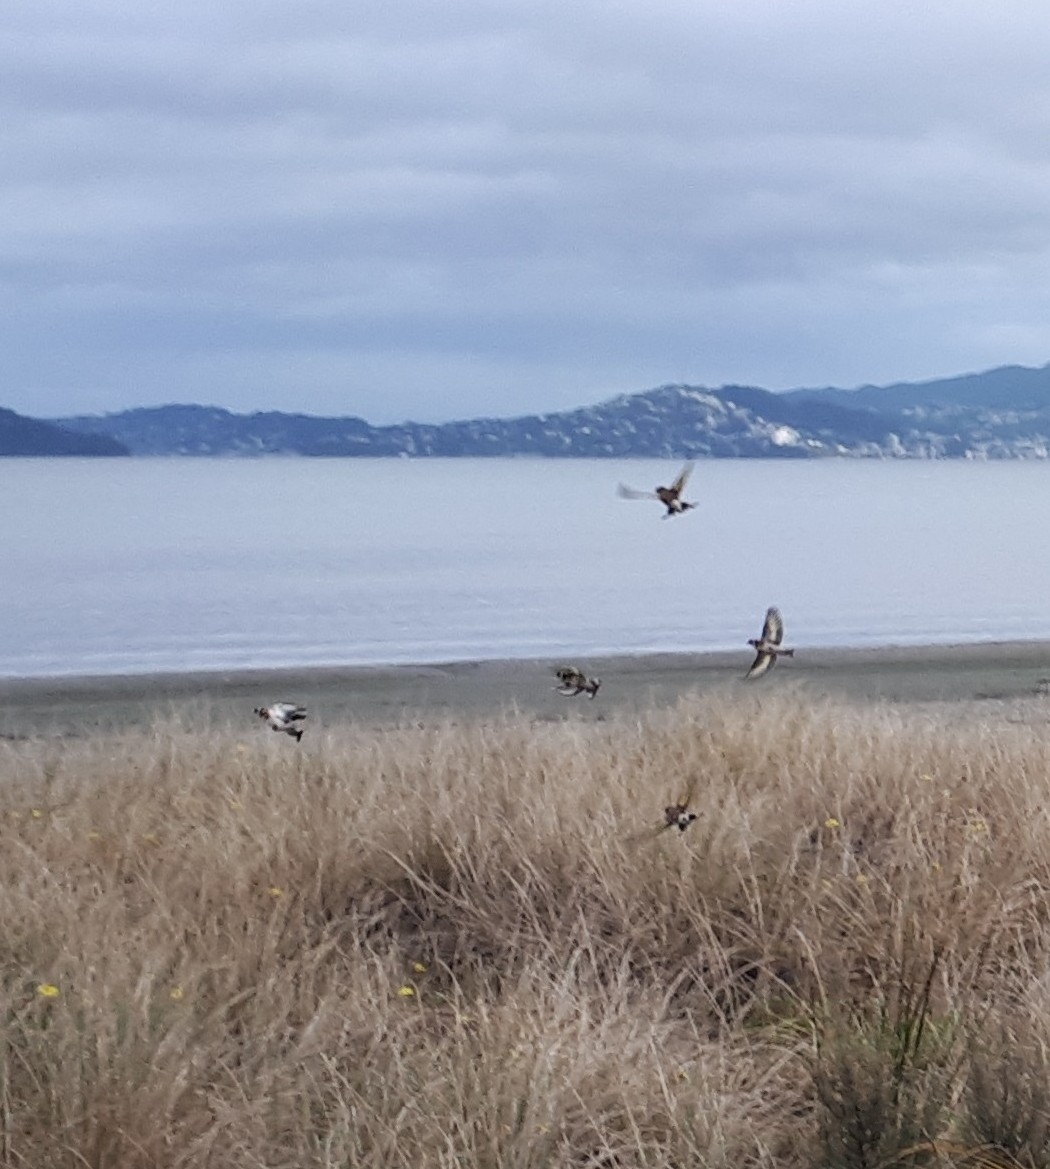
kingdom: Animalia
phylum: Chordata
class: Aves
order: Passeriformes
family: Fringillidae
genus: Carduelis
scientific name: Carduelis carduelis
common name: European goldfinch
